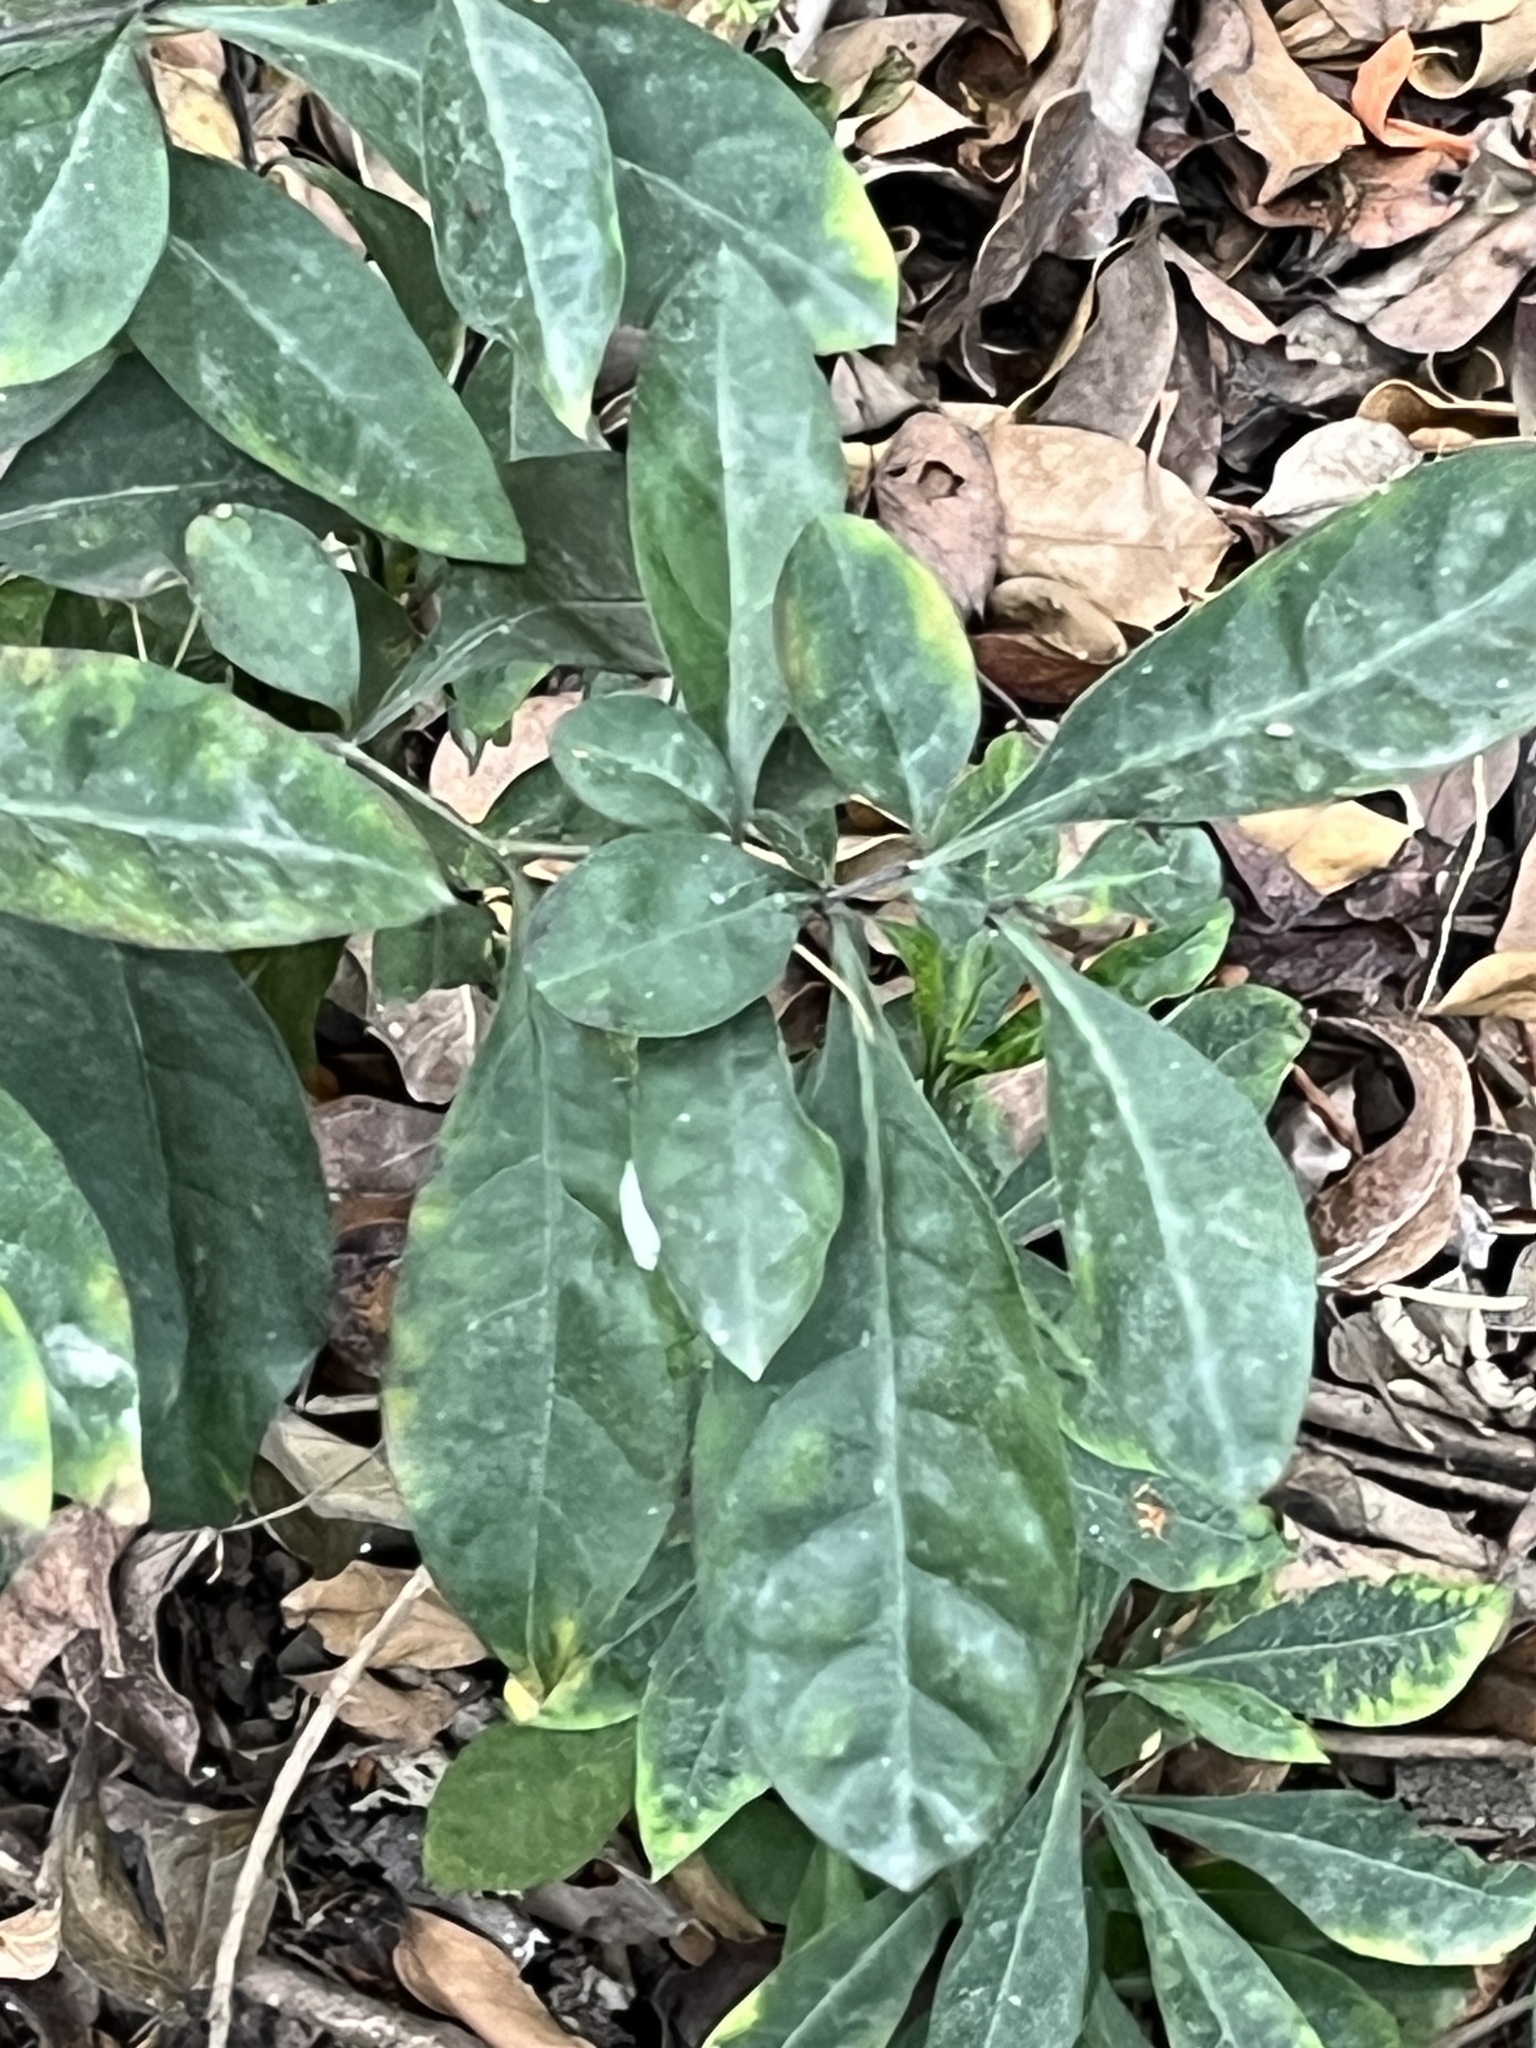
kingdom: Plantae
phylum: Tracheophyta
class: Magnoliopsida
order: Solanales
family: Solanaceae
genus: Solanum
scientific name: Solanum diphyllum
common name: Twoleaf nightshade
